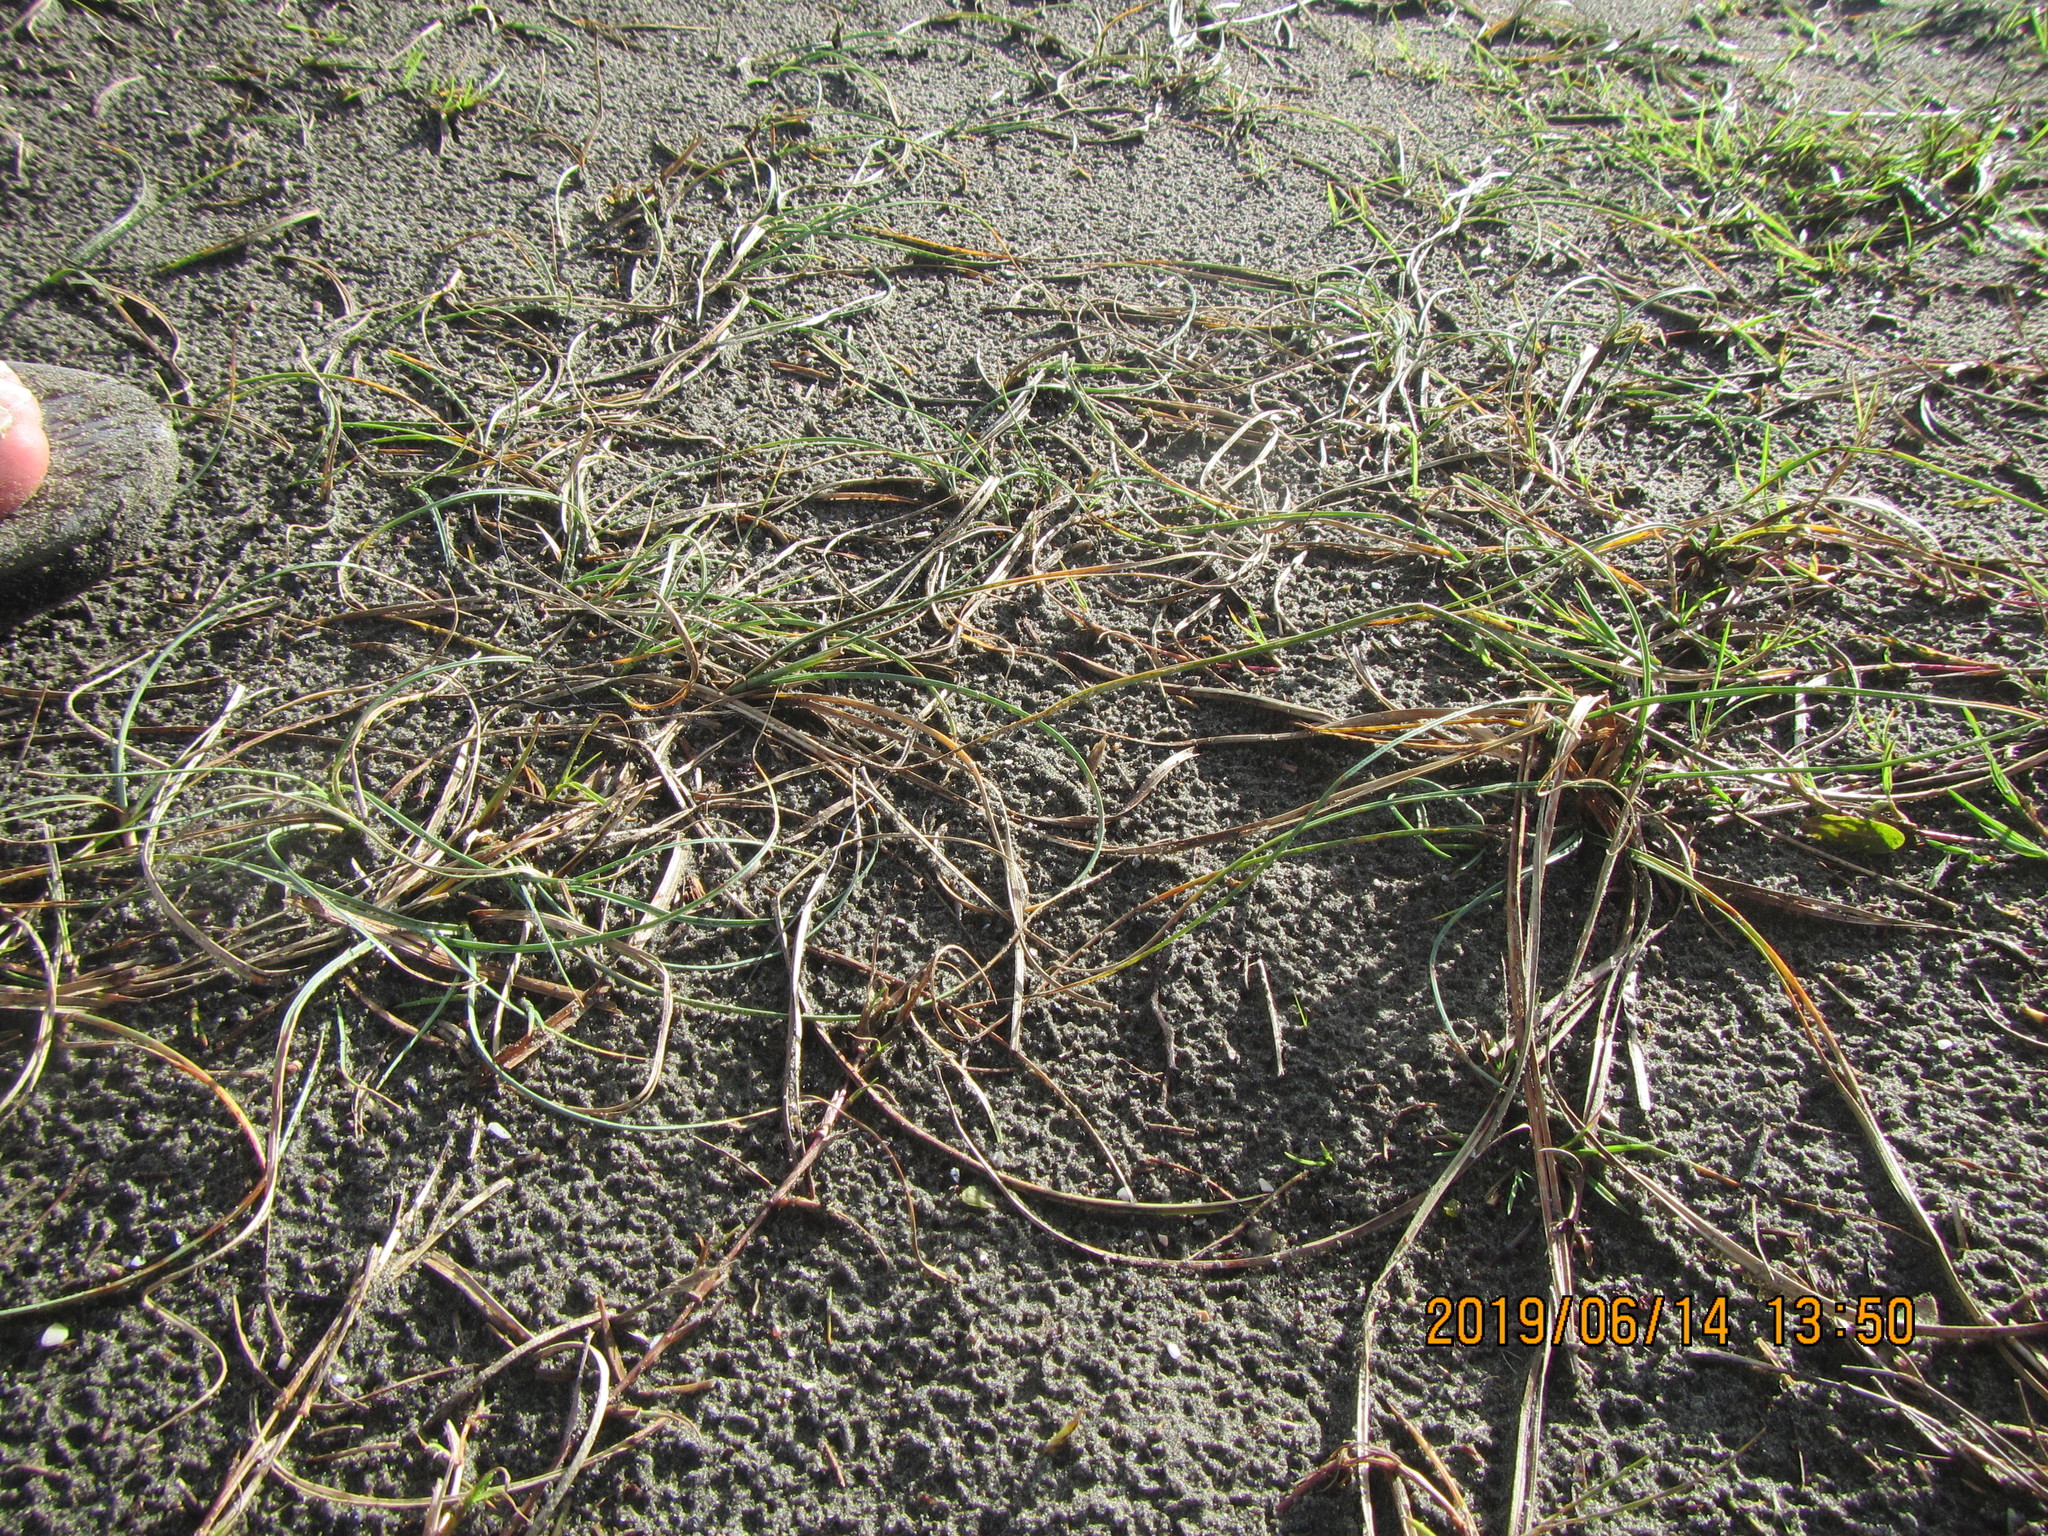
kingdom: Plantae
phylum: Tracheophyta
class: Liliopsida
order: Poales
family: Cyperaceae
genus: Carex
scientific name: Carex pumila
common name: Dwarf sedge
